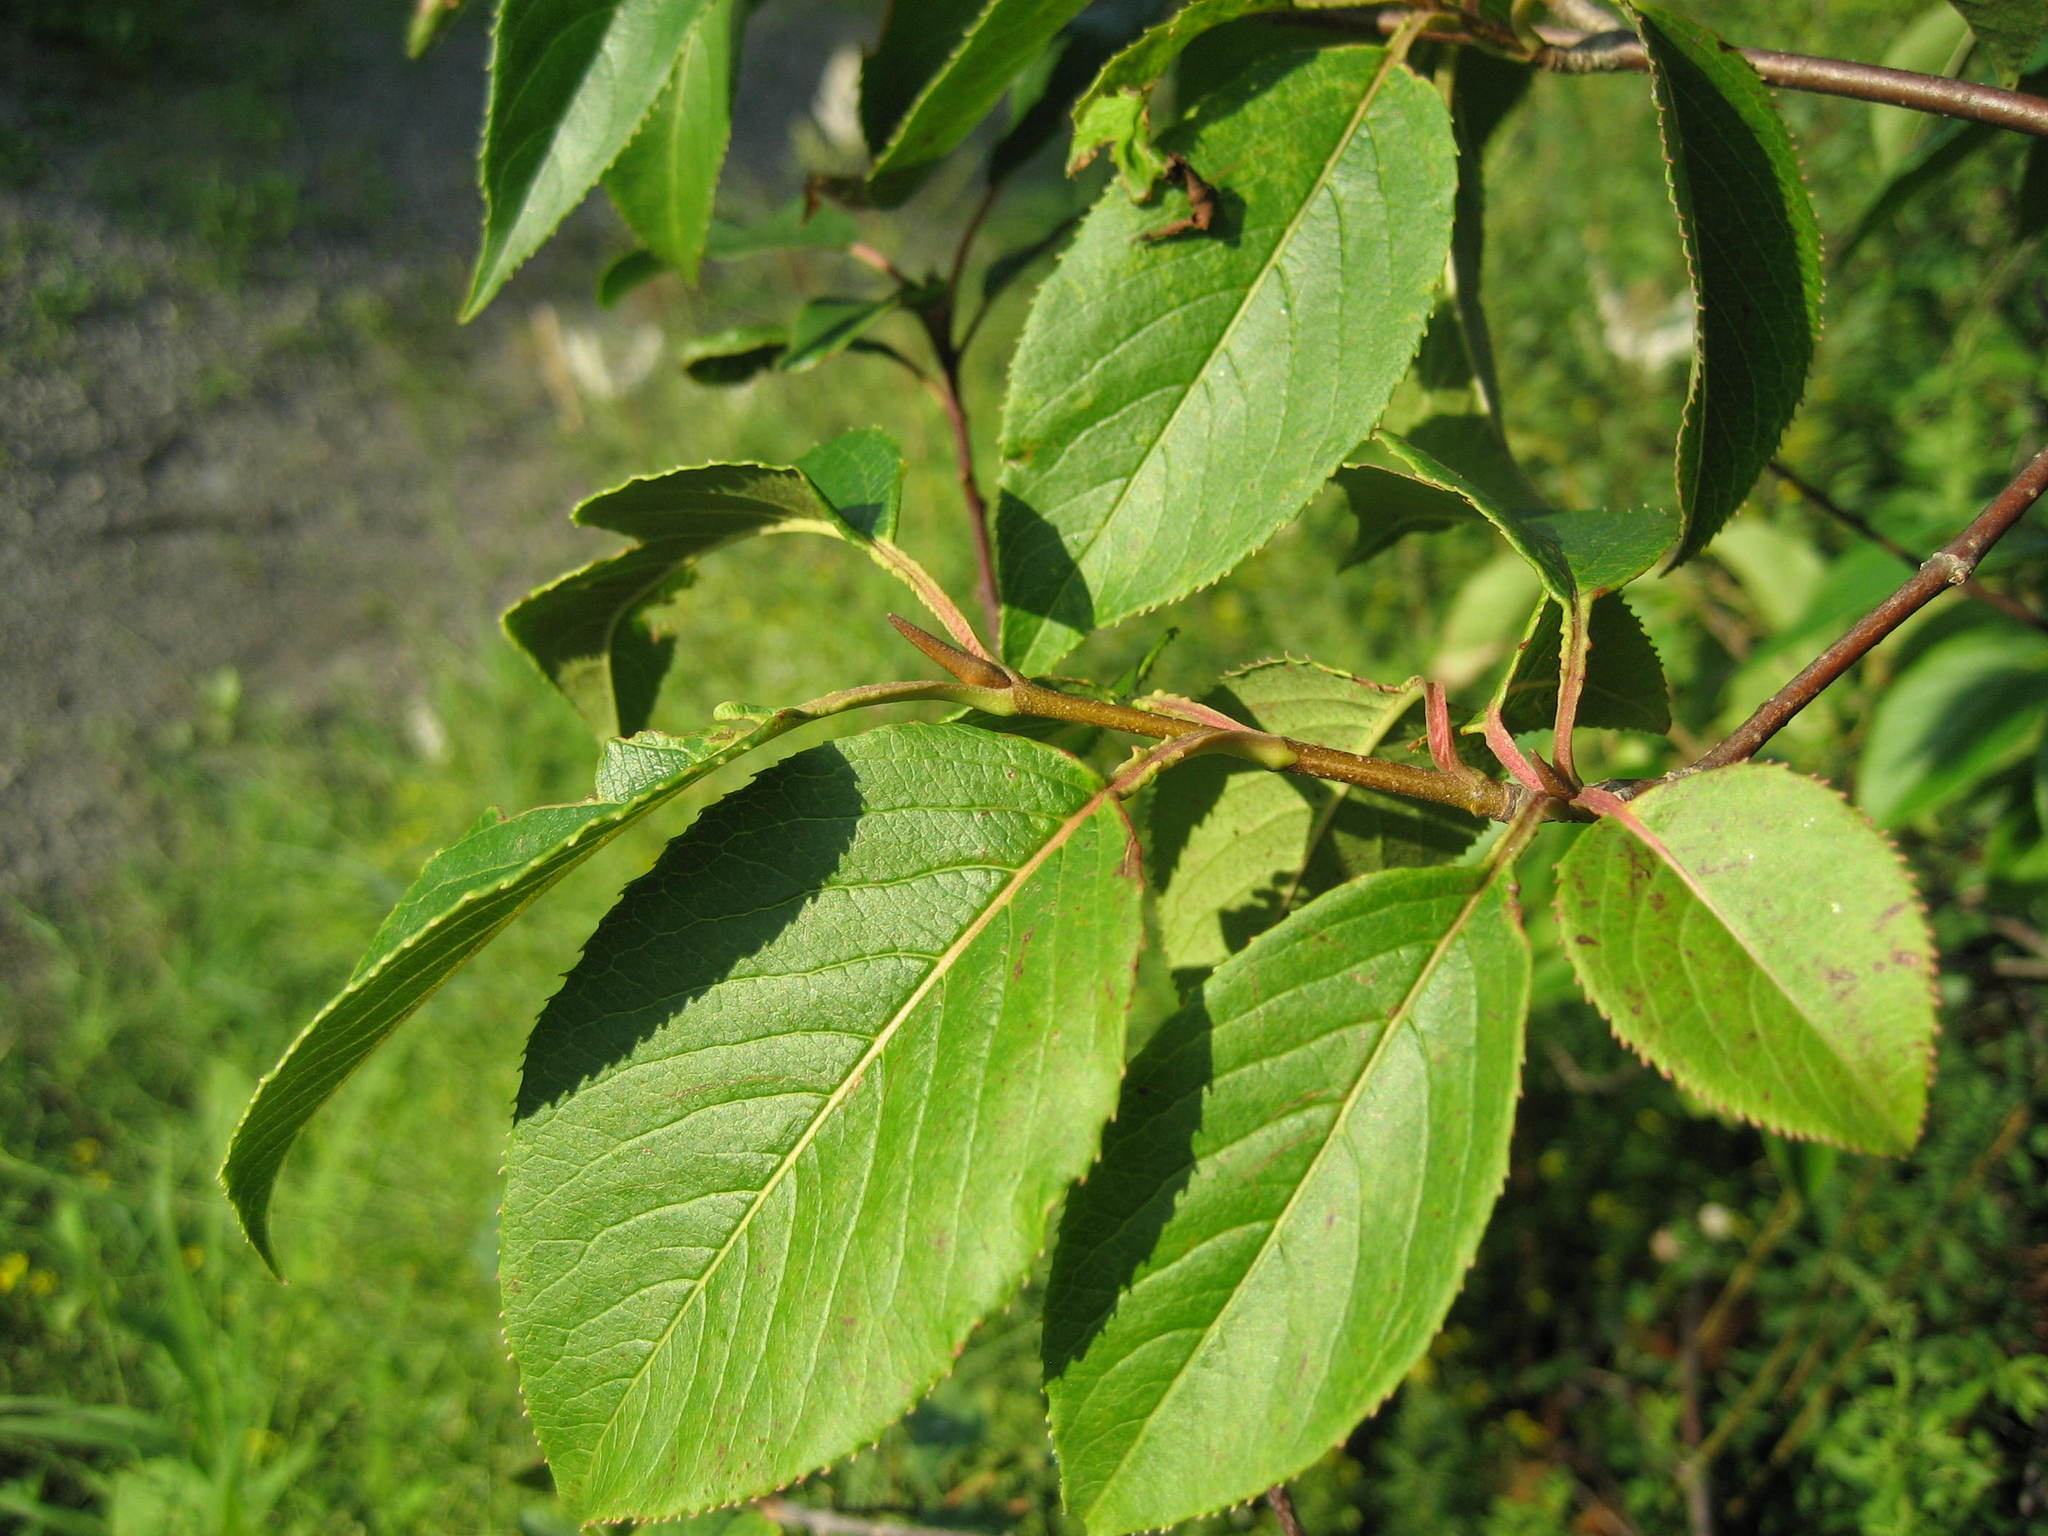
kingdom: Plantae
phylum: Tracheophyta
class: Magnoliopsida
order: Dipsacales
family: Viburnaceae
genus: Viburnum
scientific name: Viburnum lentago
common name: Black haw
